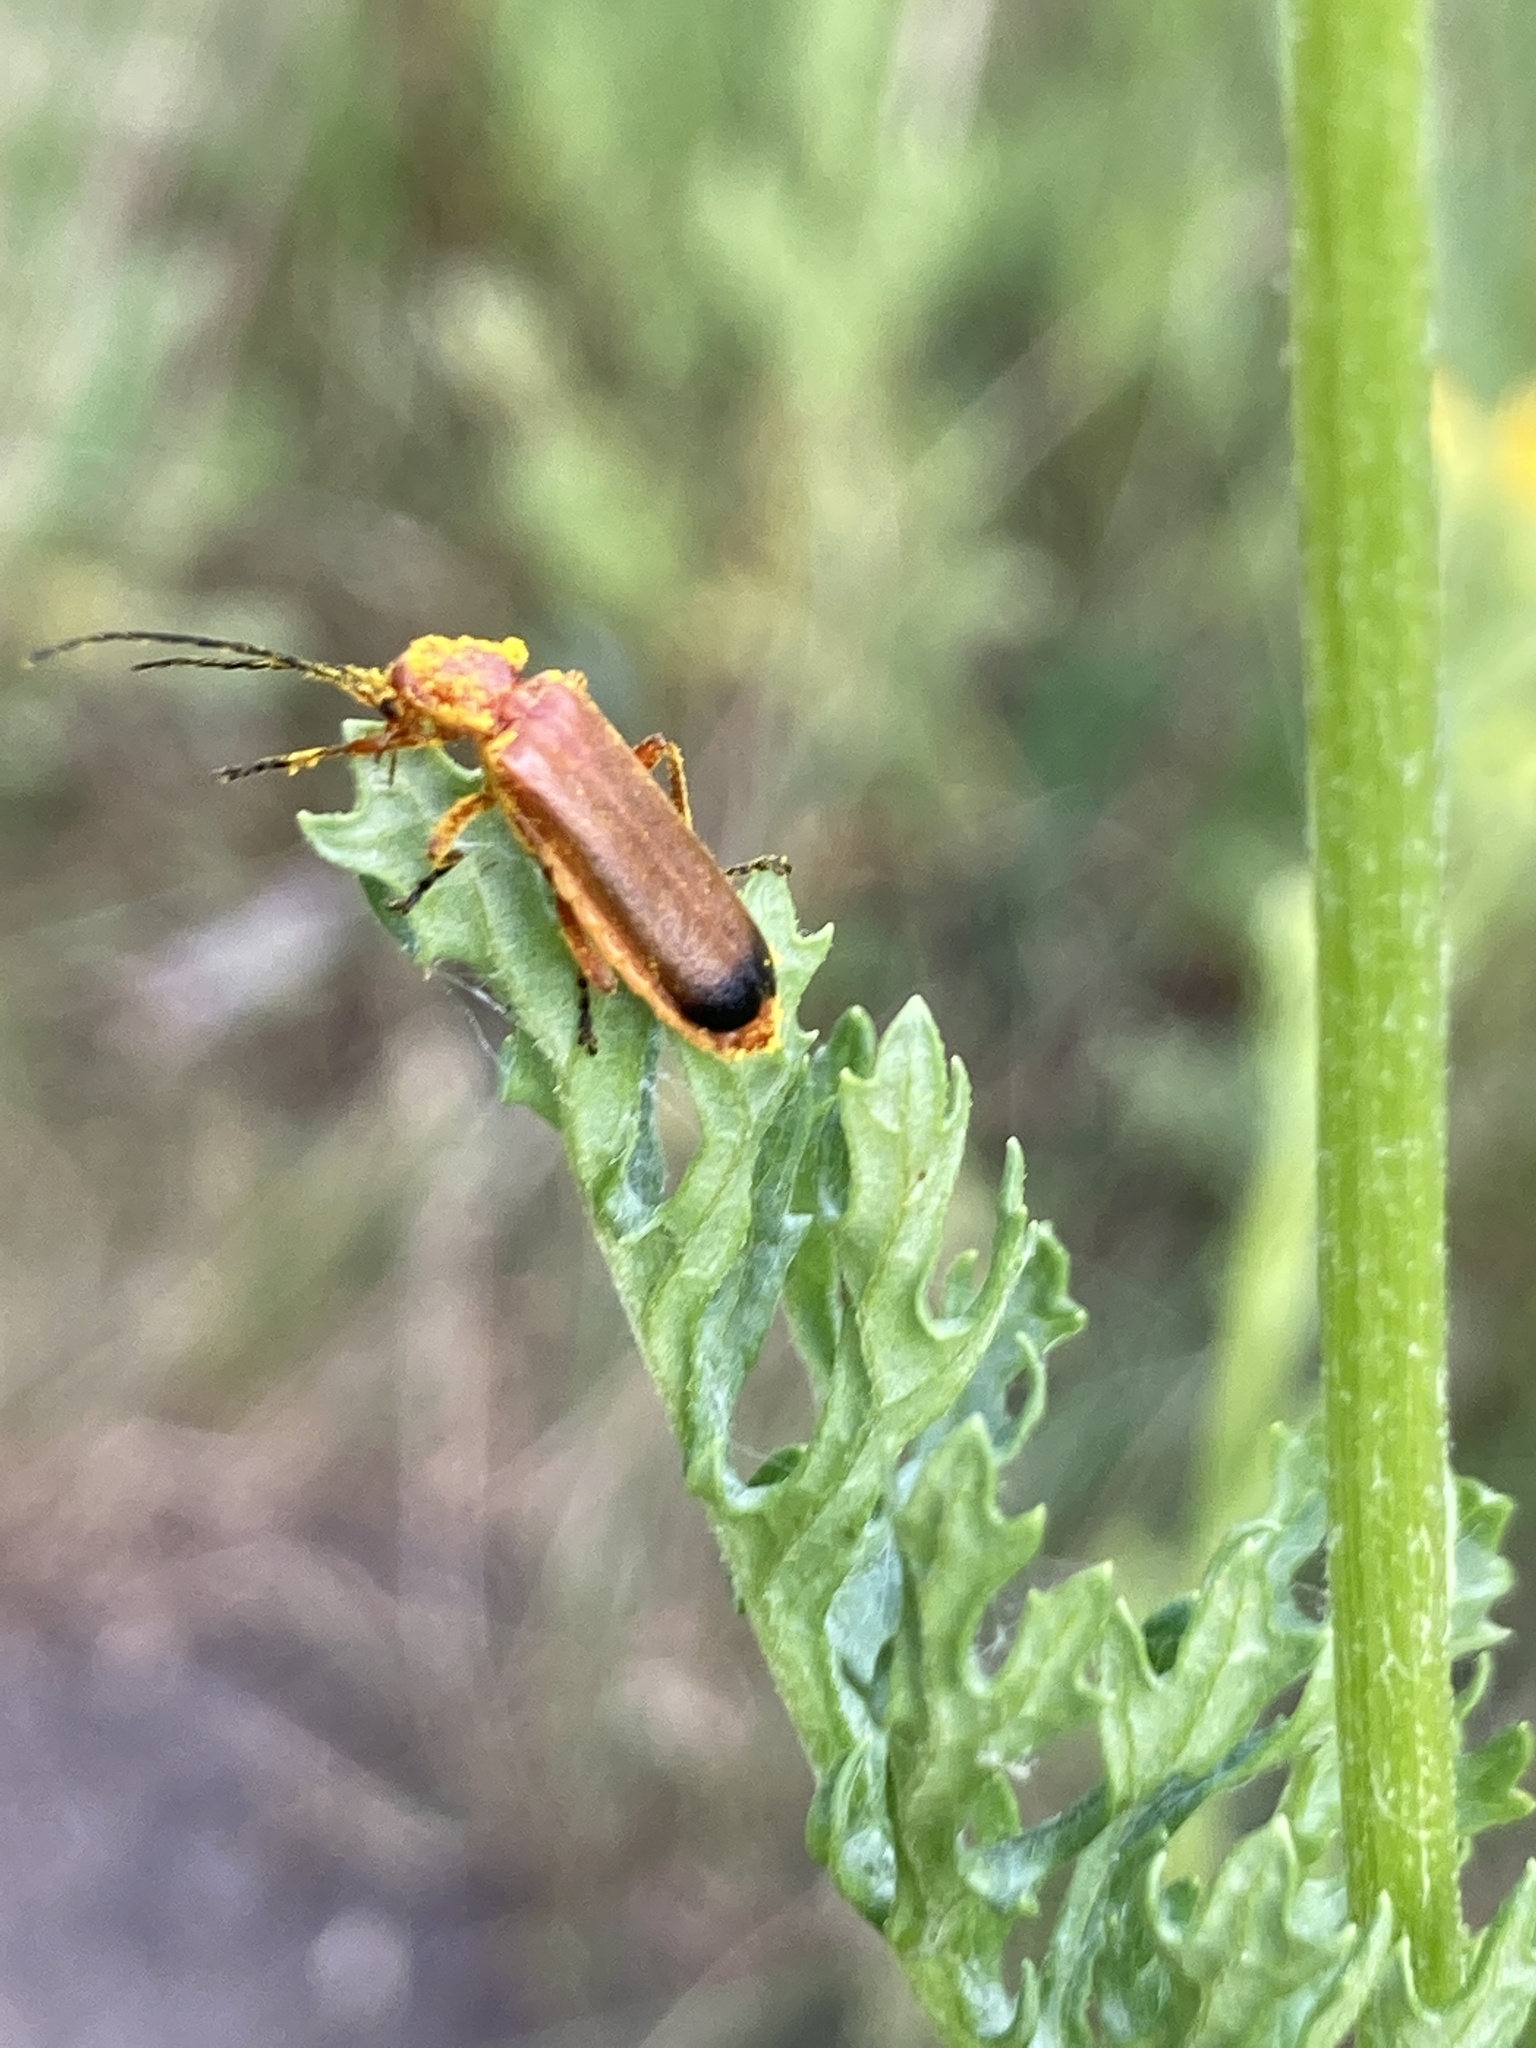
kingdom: Animalia
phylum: Arthropoda
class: Insecta
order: Coleoptera
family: Cantharidae
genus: Rhagonycha
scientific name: Rhagonycha fulva
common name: Common red soldier beetle
